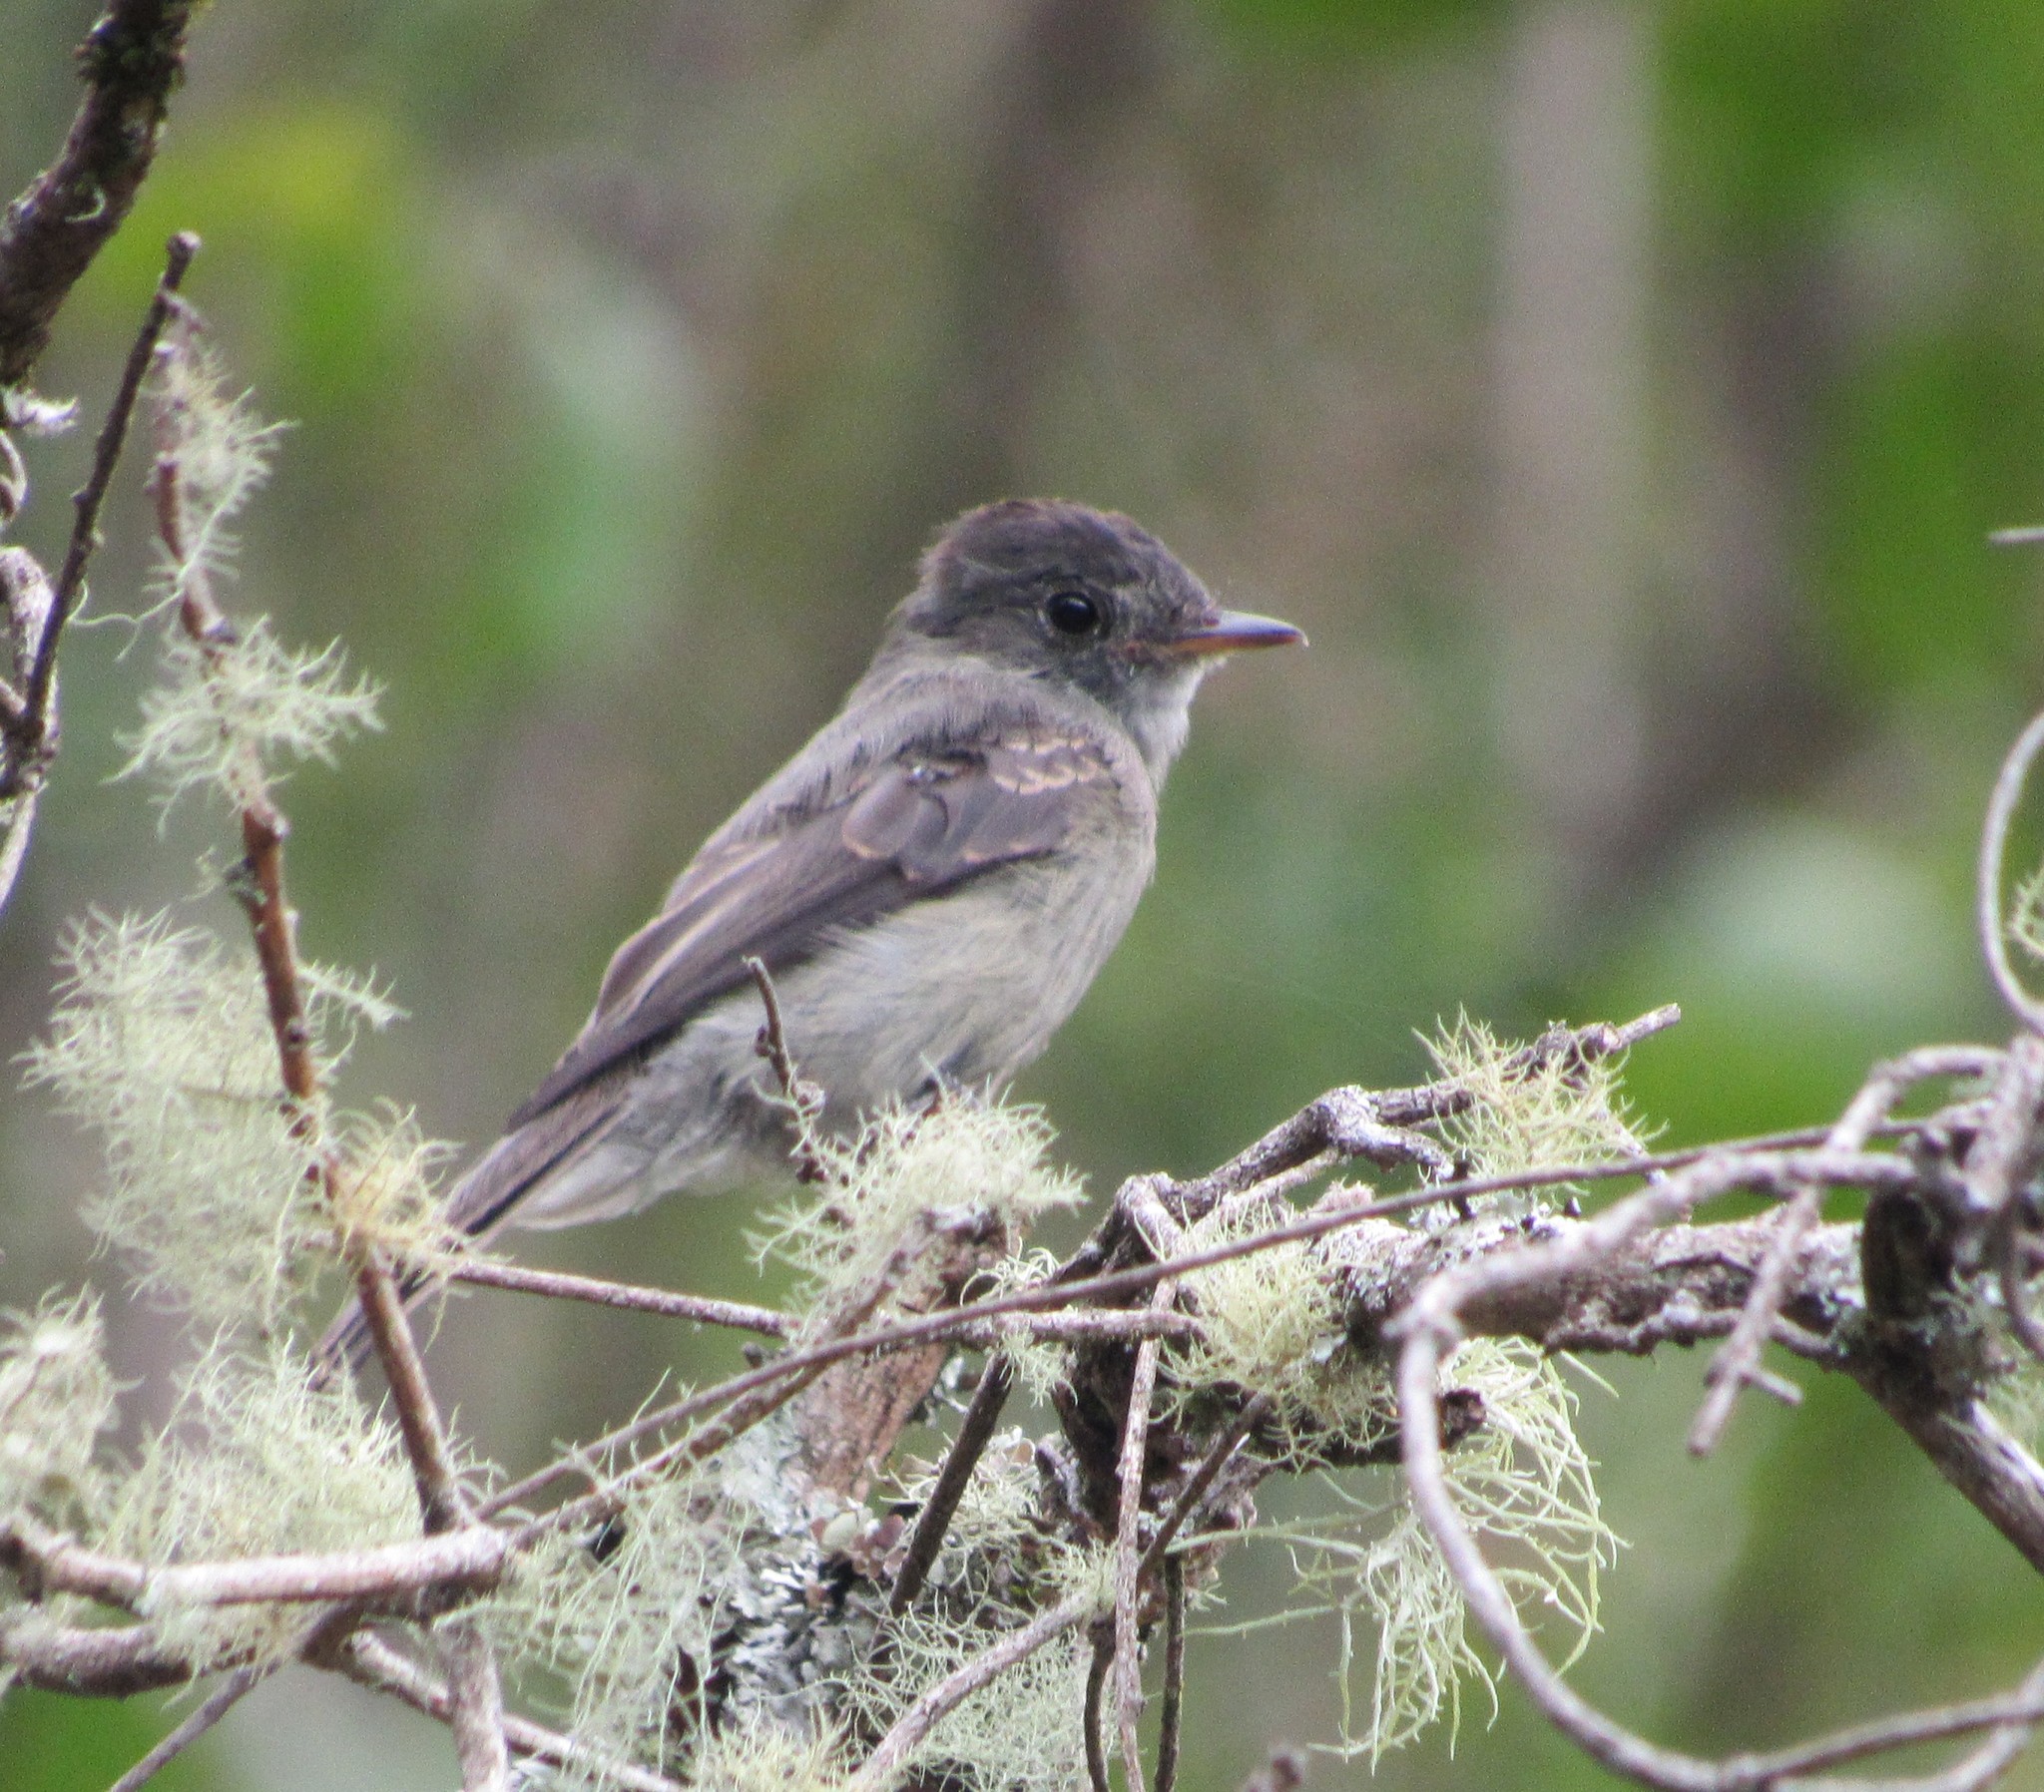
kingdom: Animalia
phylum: Chordata
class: Aves
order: Passeriformes
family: Tyrannidae
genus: Contopus
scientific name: Contopus cinereus
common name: Tropical pewee
